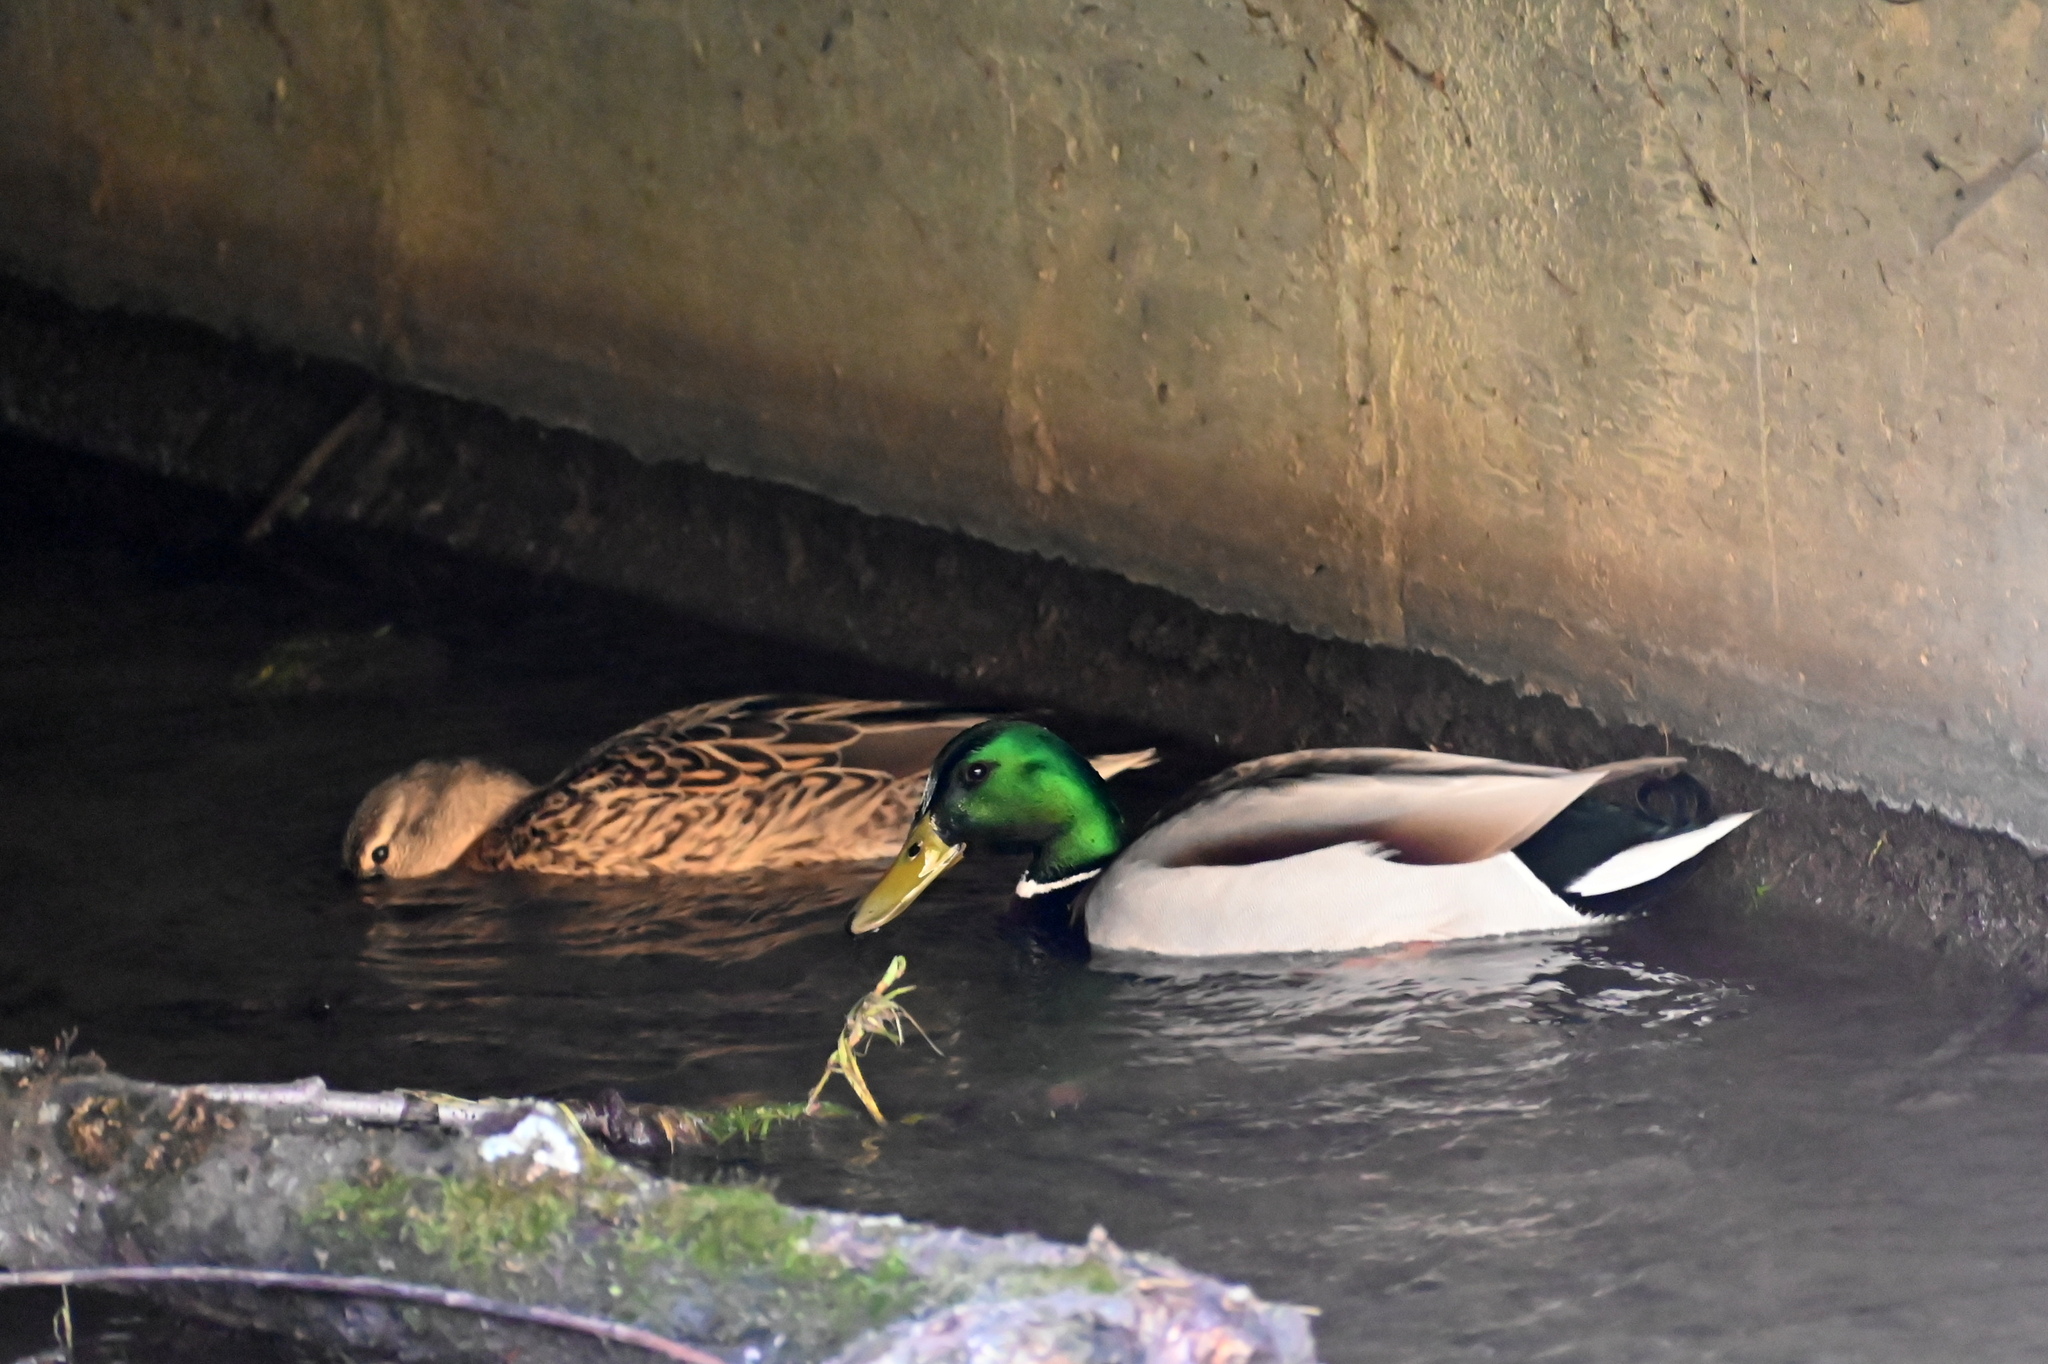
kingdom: Animalia
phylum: Chordata
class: Aves
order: Anseriformes
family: Anatidae
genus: Anas
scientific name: Anas platyrhynchos
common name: Mallard
